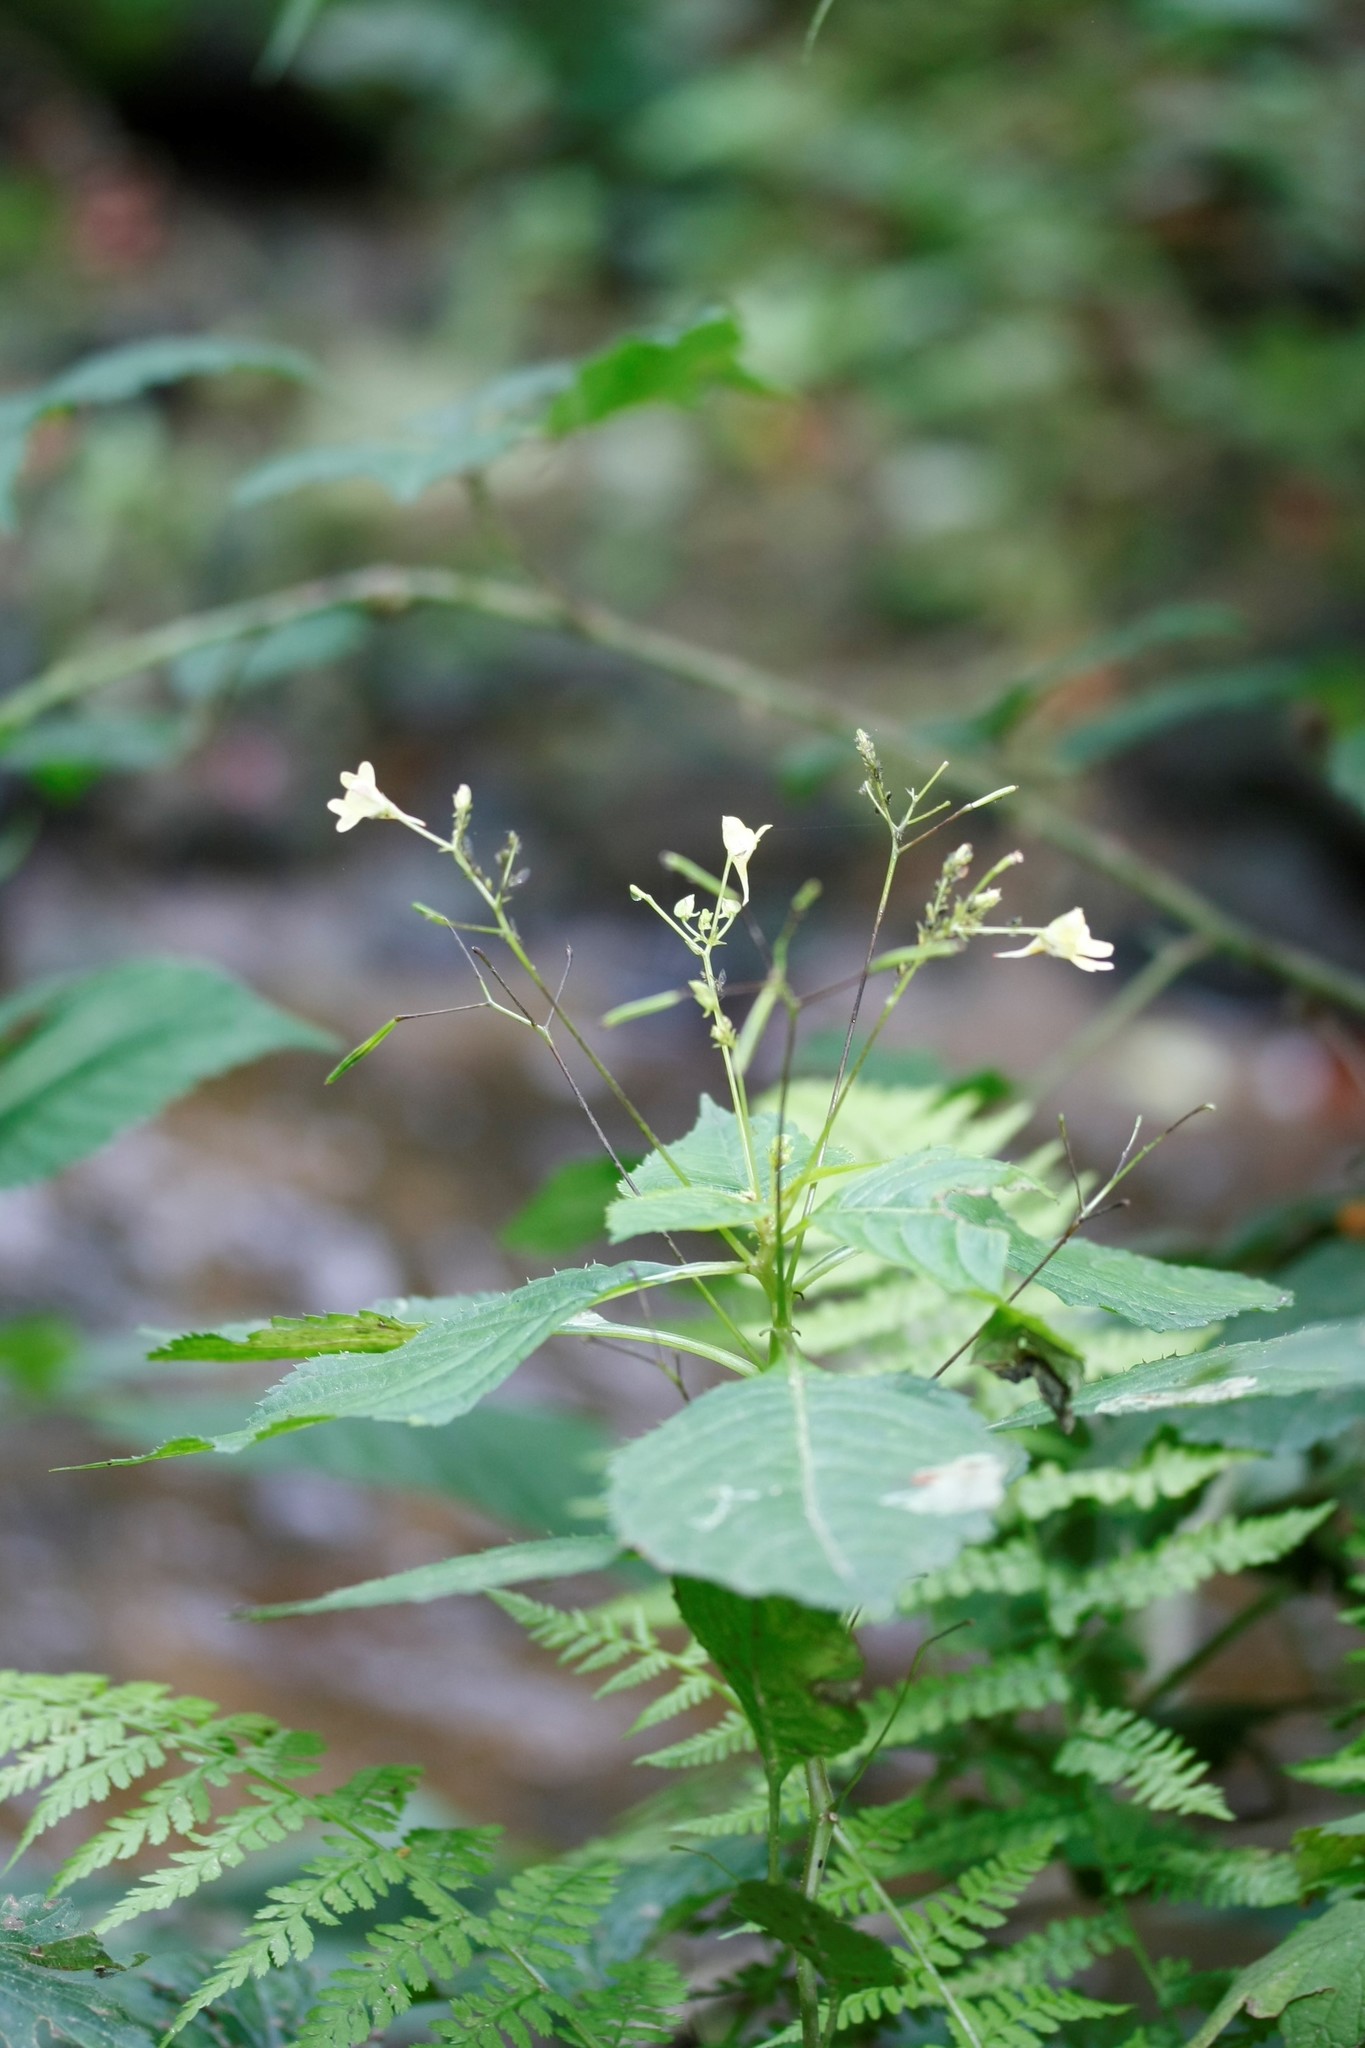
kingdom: Plantae
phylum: Tracheophyta
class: Magnoliopsida
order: Ericales
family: Balsaminaceae
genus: Impatiens
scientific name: Impatiens parviflora
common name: Small balsam
